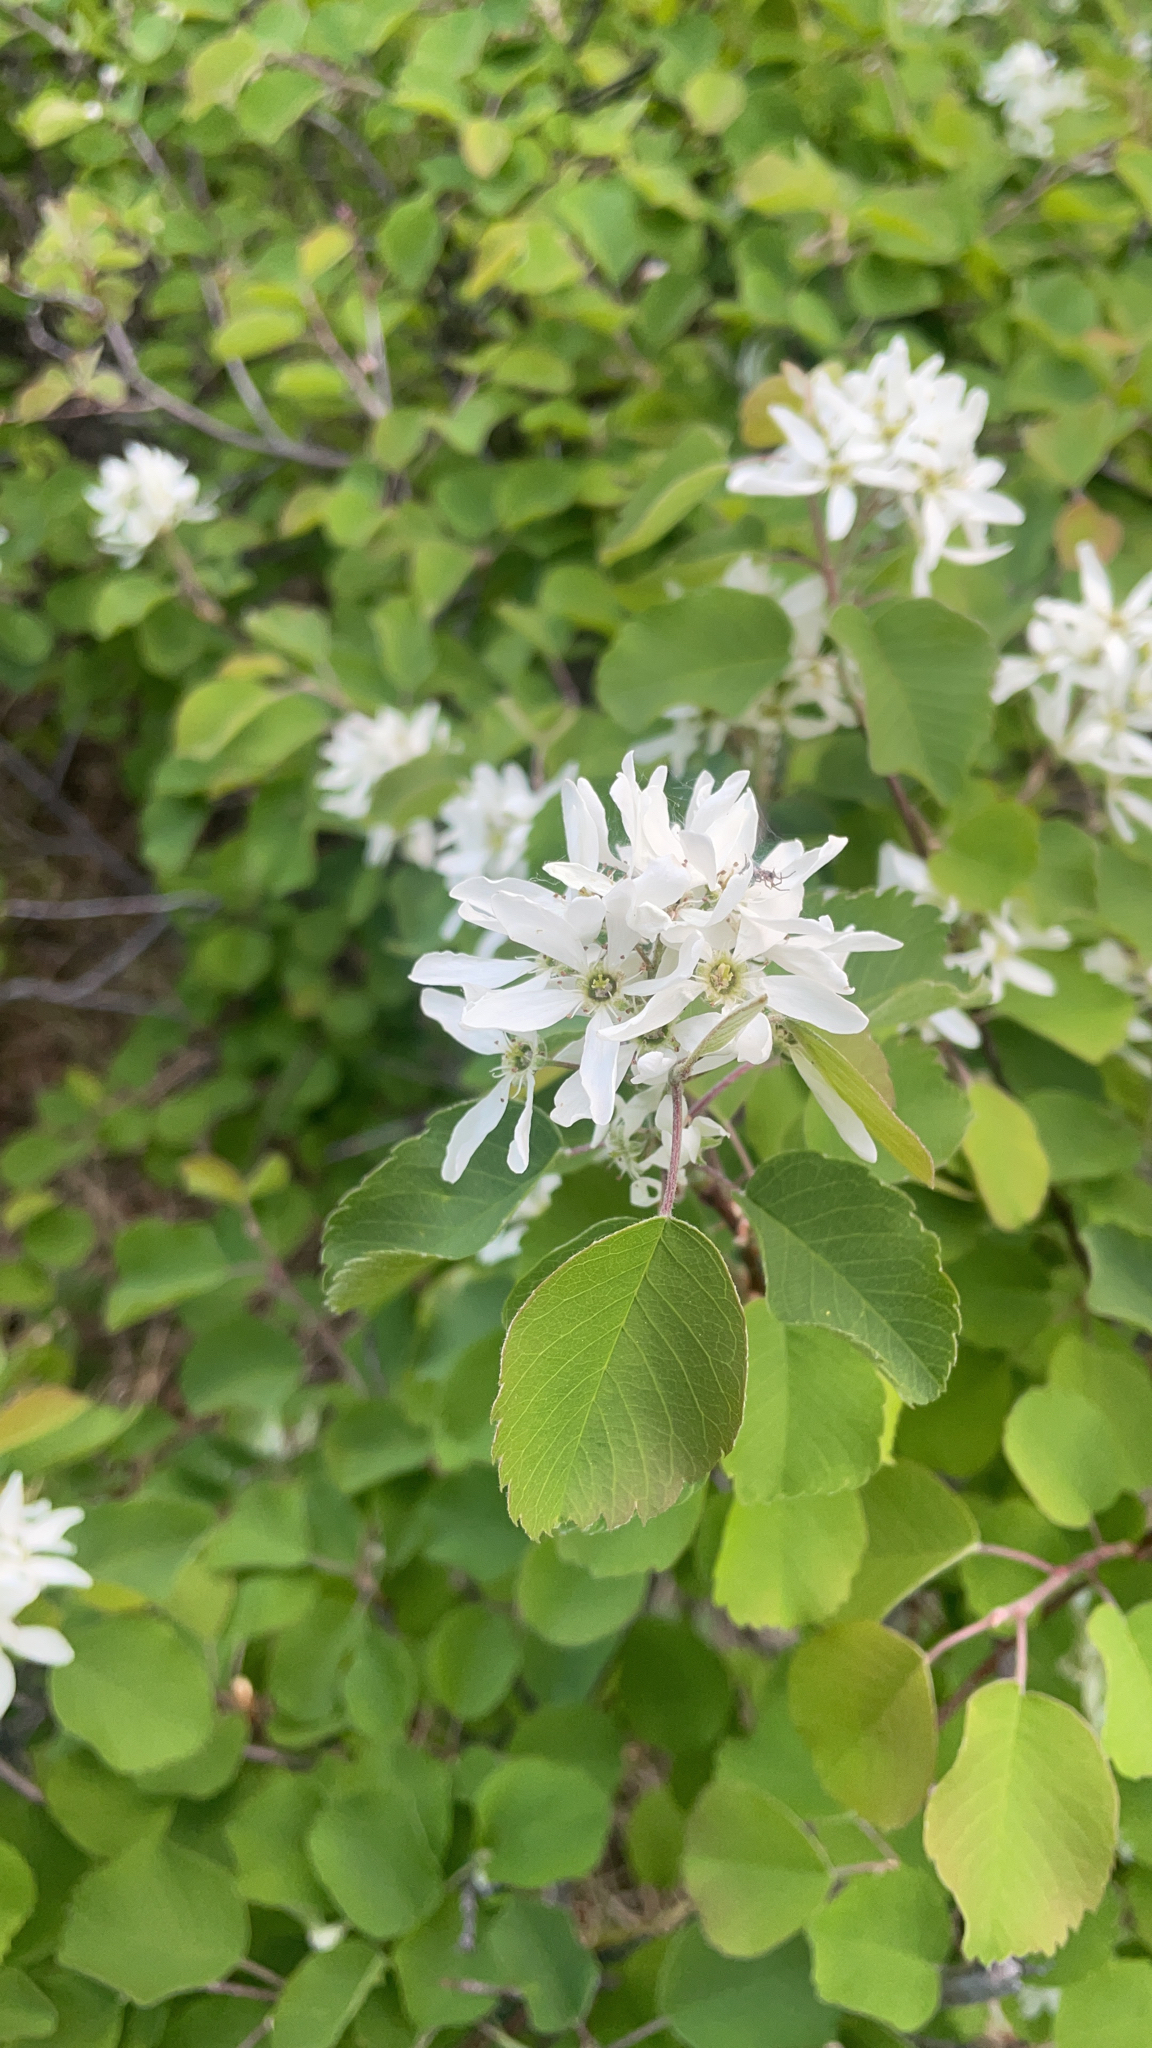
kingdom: Plantae
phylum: Tracheophyta
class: Magnoliopsida
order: Rosales
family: Rosaceae
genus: Amelanchier
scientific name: Amelanchier alnifolia
